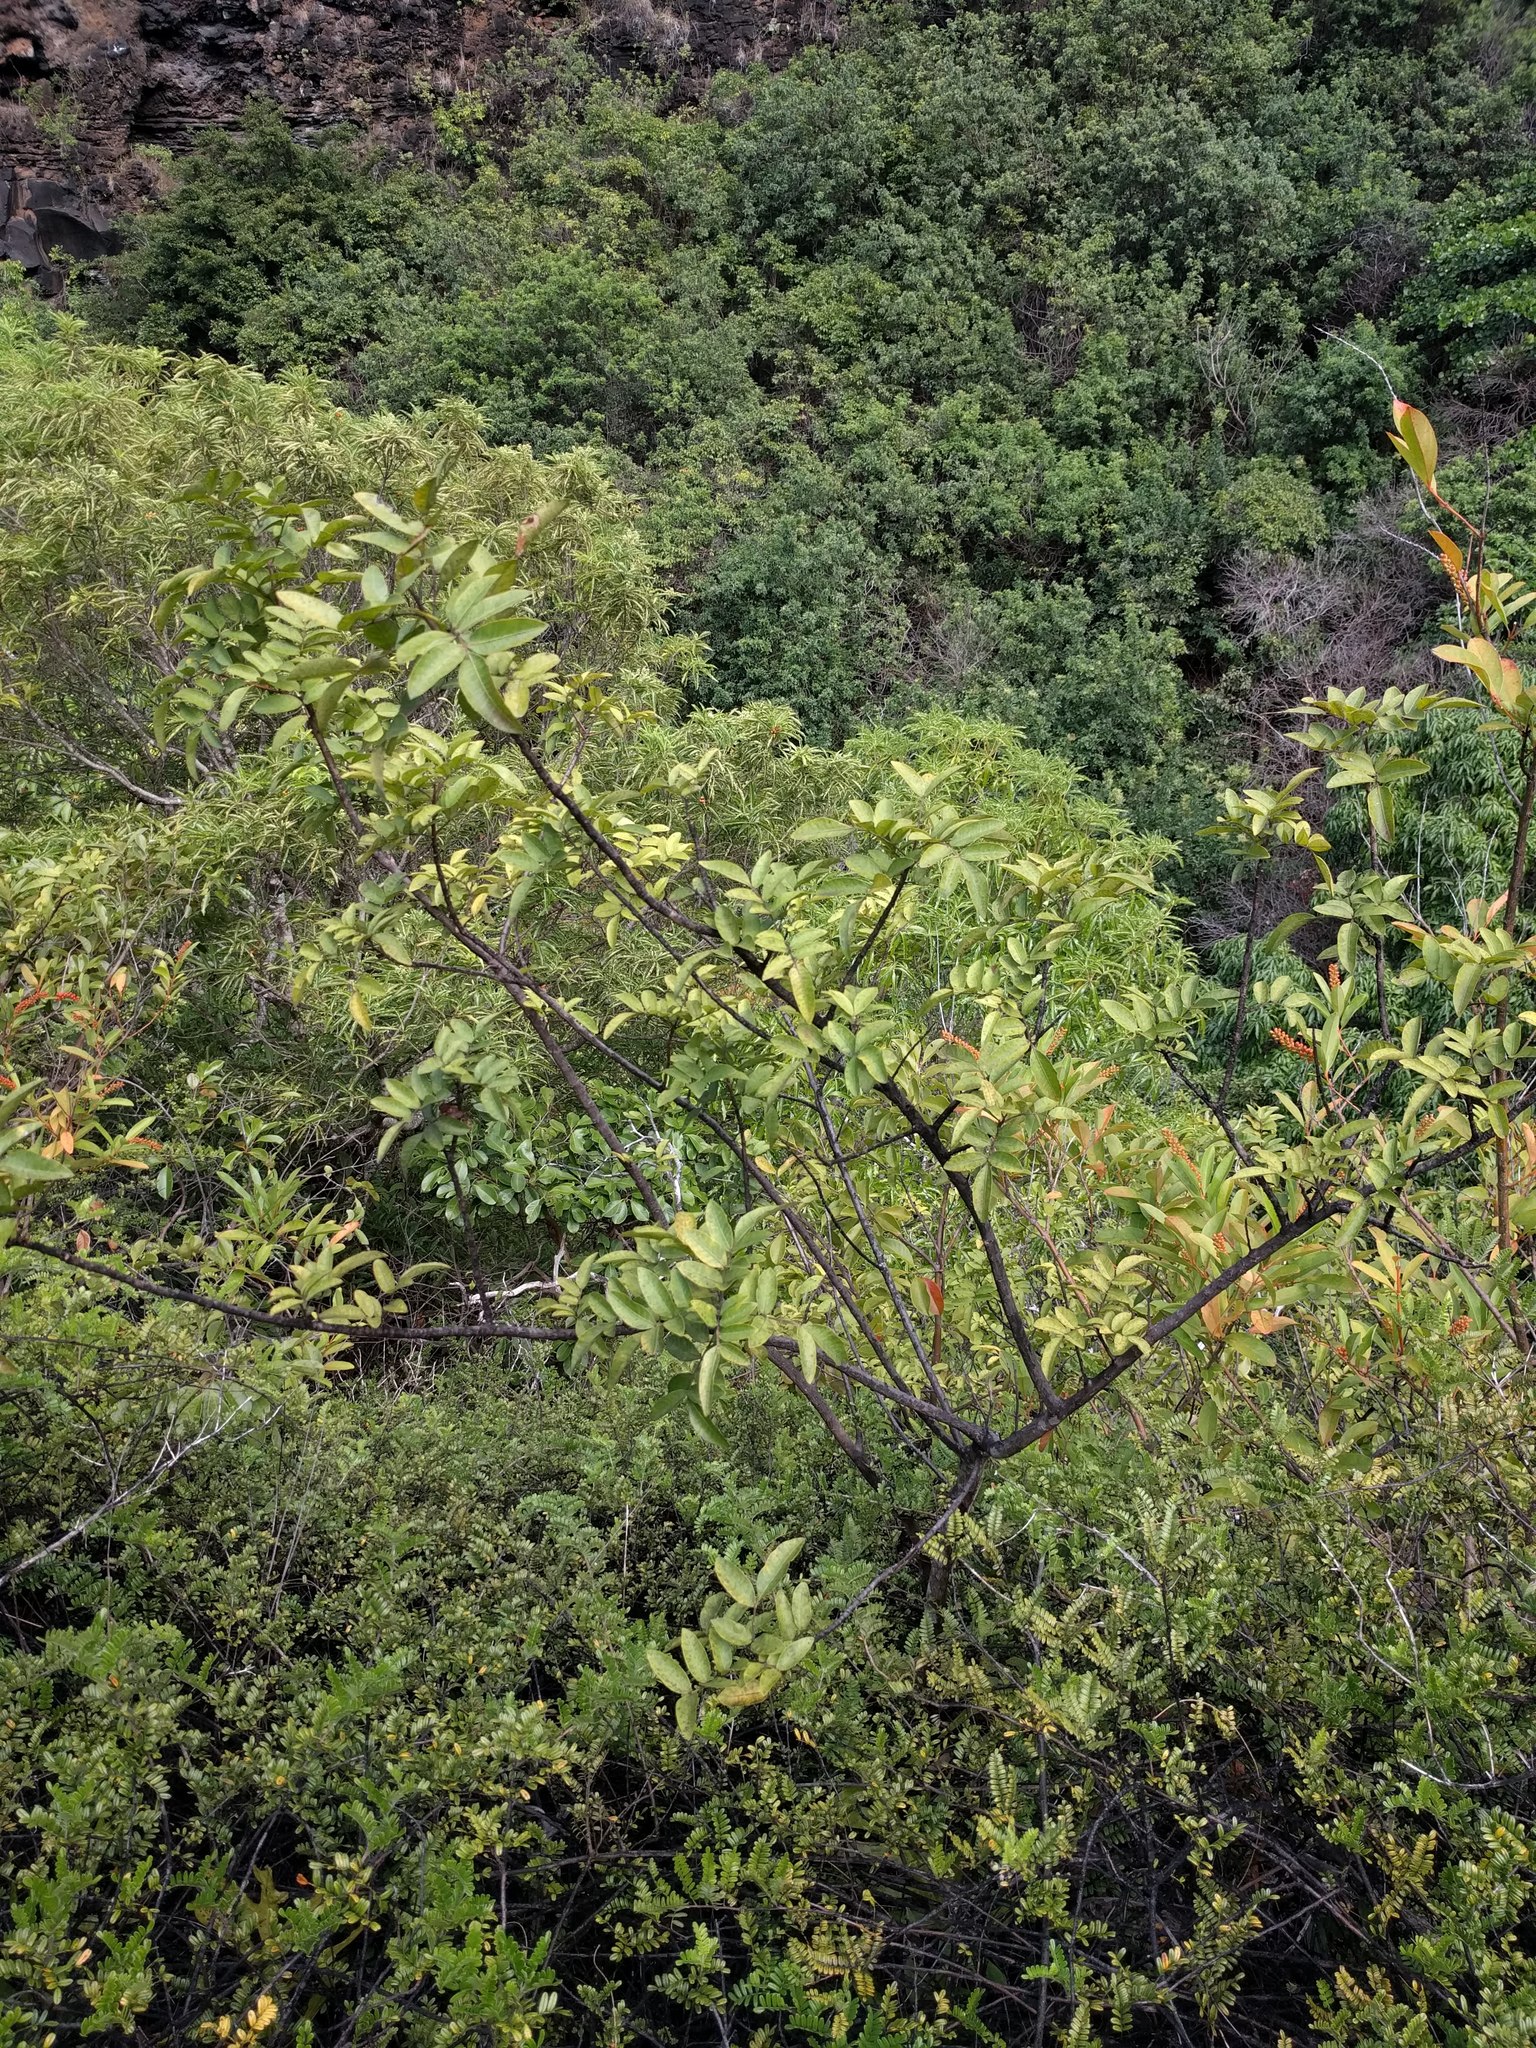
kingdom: Plantae
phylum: Tracheophyta
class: Magnoliopsida
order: Sapindales
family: Anacardiaceae
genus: Schinus
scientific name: Schinus terebinthifolia
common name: Brazilian peppertree
